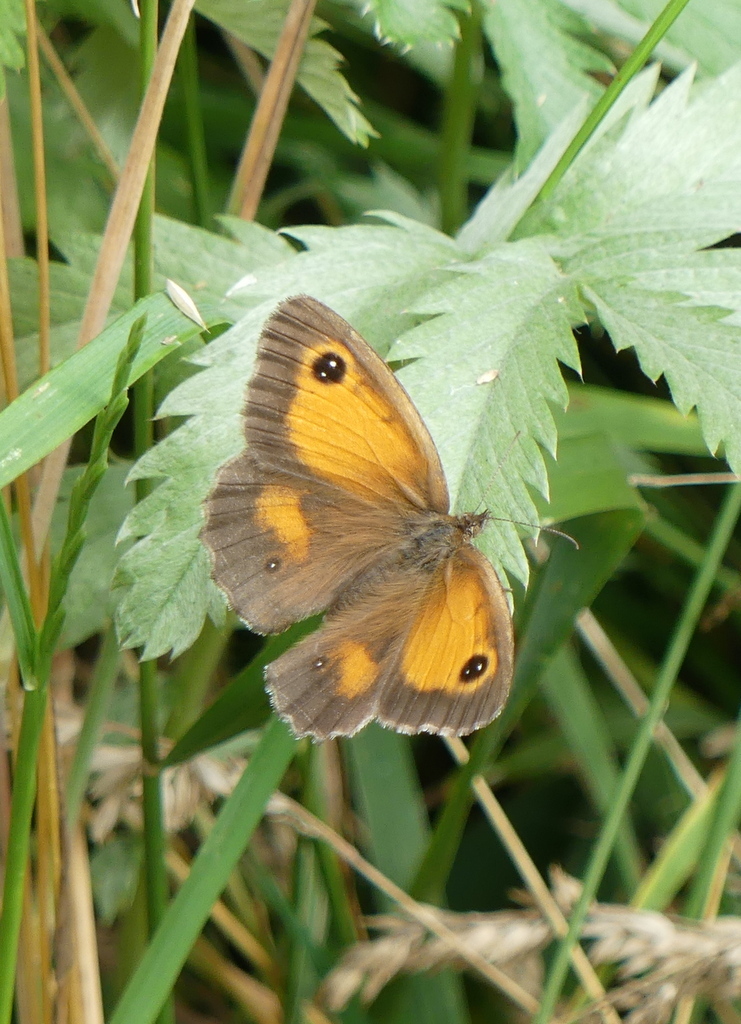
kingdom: Animalia
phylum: Arthropoda
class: Insecta
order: Lepidoptera
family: Nymphalidae
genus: Pyronia
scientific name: Pyronia tithonus
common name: Gatekeeper
